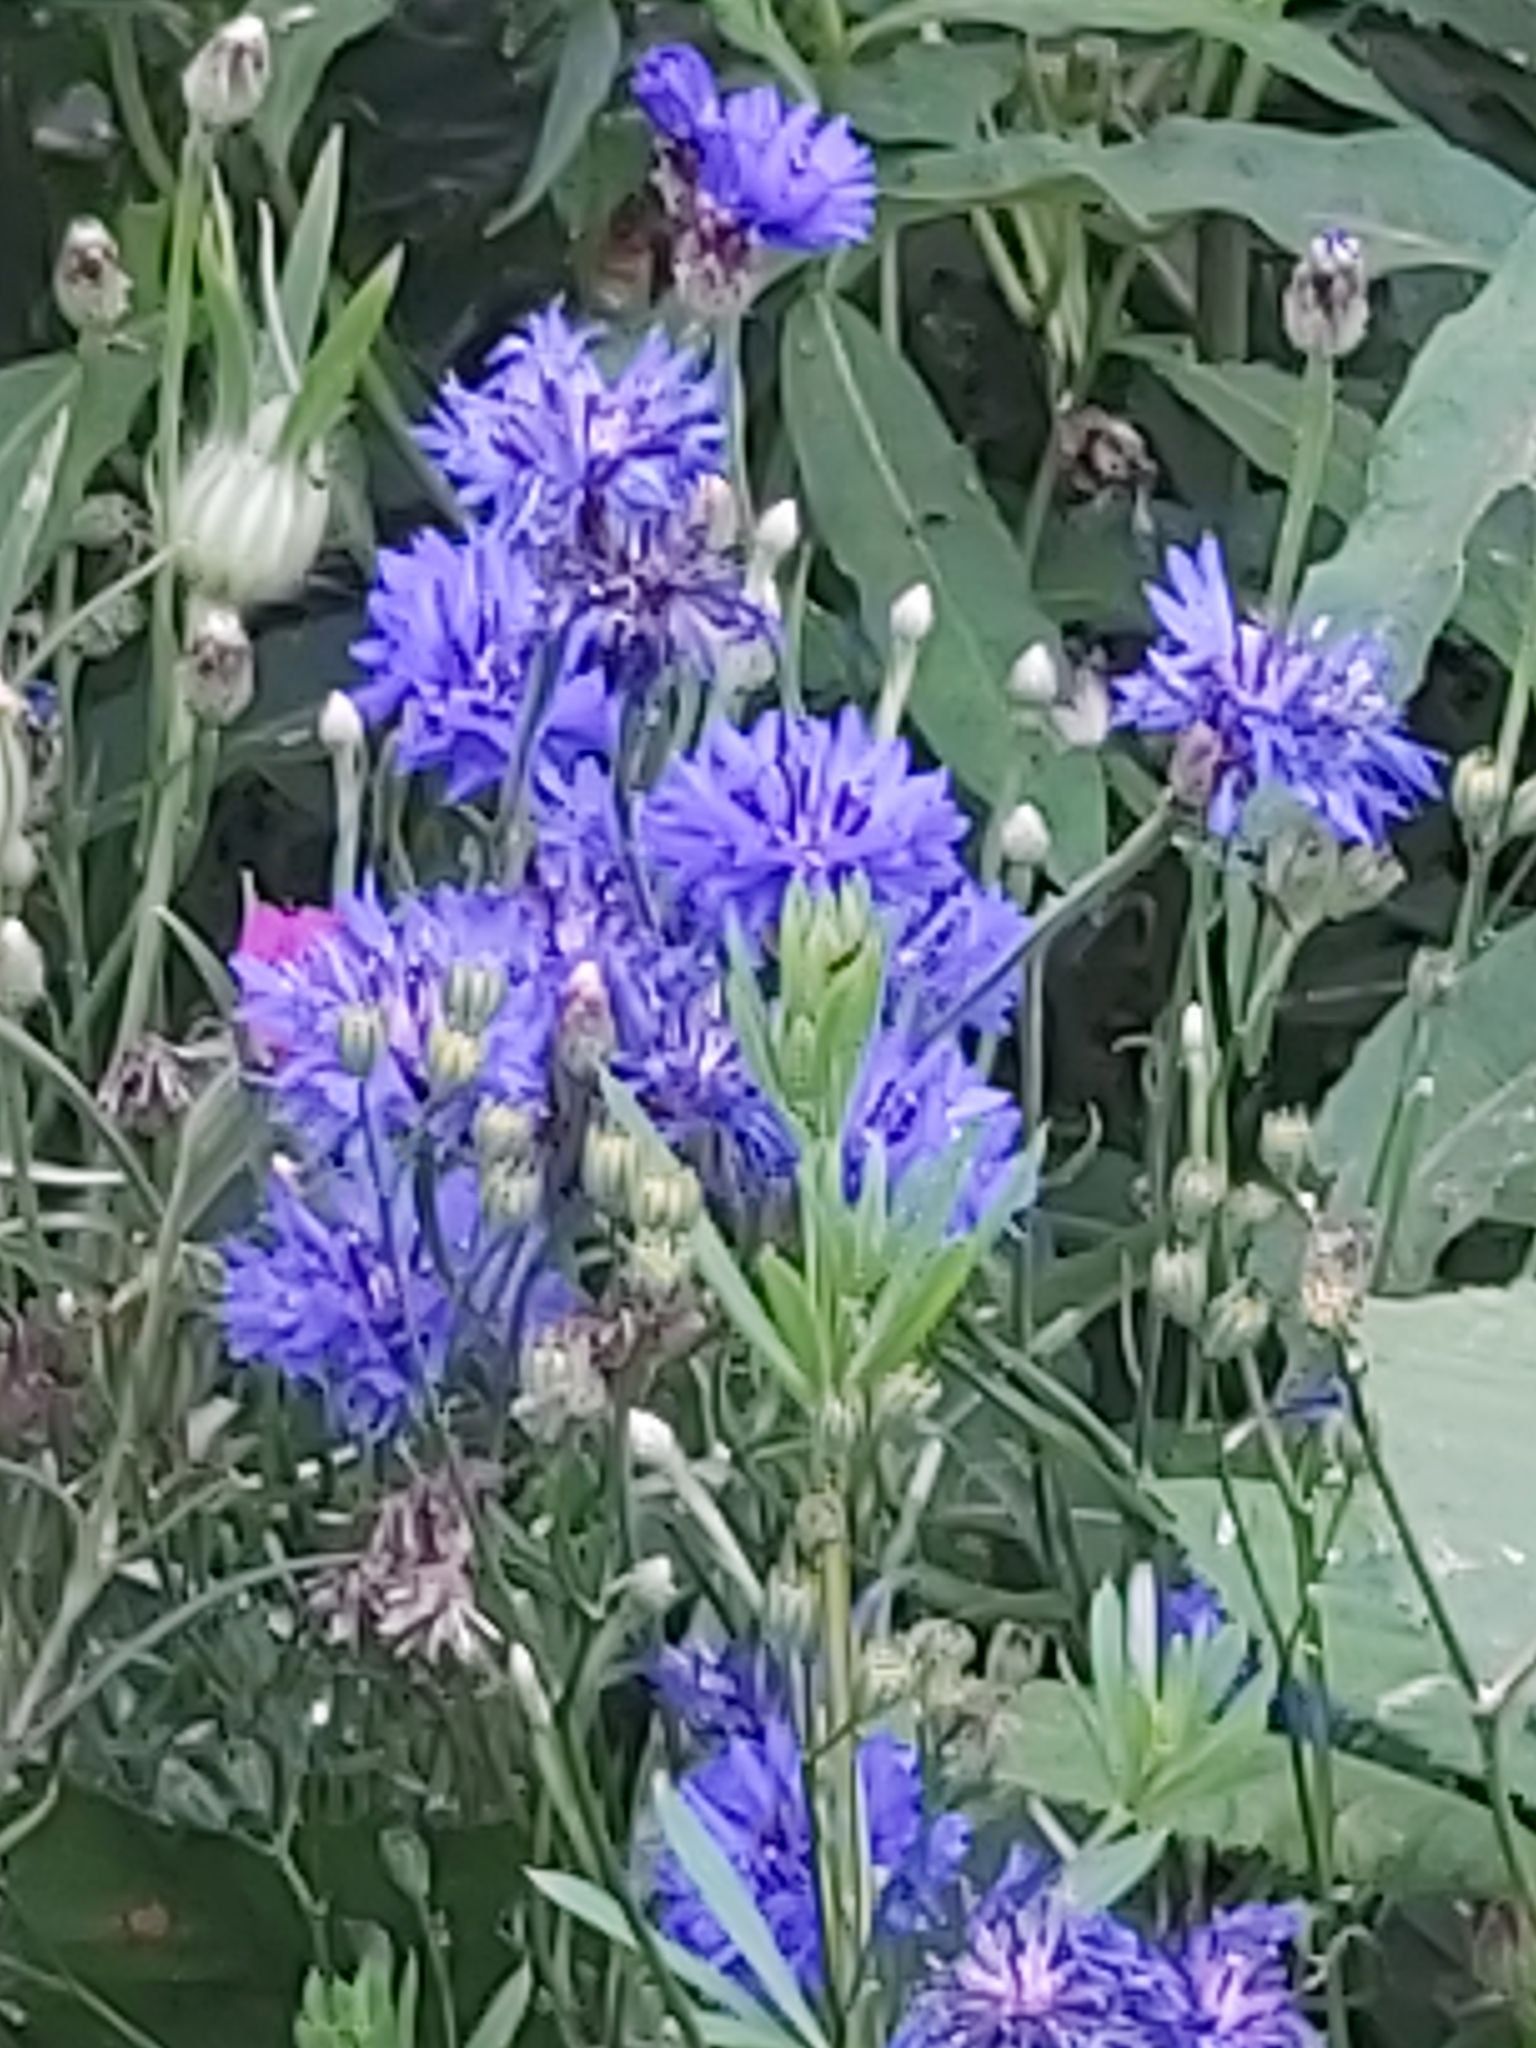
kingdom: Plantae
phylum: Tracheophyta
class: Magnoliopsida
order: Asterales
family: Asteraceae
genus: Centaurea
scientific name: Centaurea cyanus
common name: Cornflower
